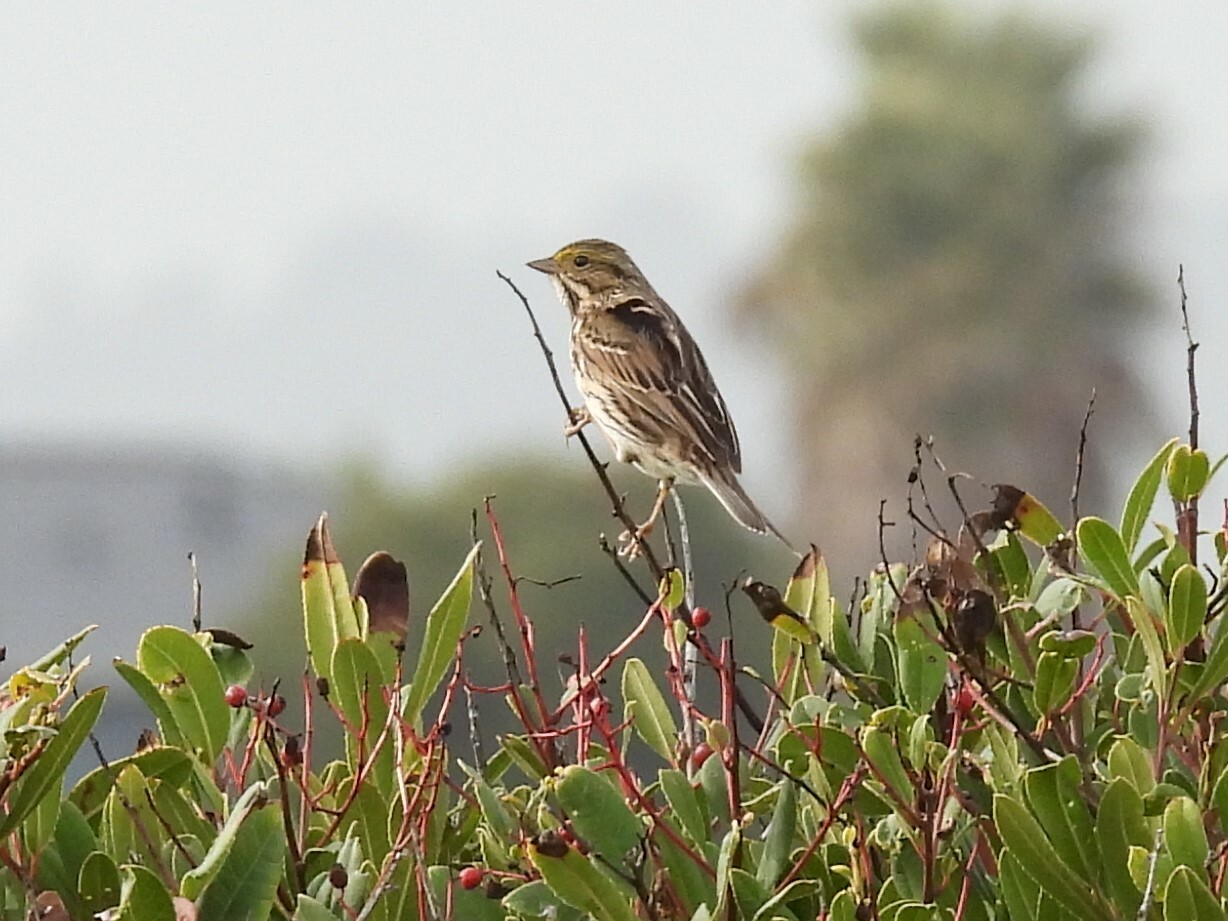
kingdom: Animalia
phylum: Chordata
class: Aves
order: Passeriformes
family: Passerellidae
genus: Passerculus
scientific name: Passerculus sandwichensis
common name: Savannah sparrow
